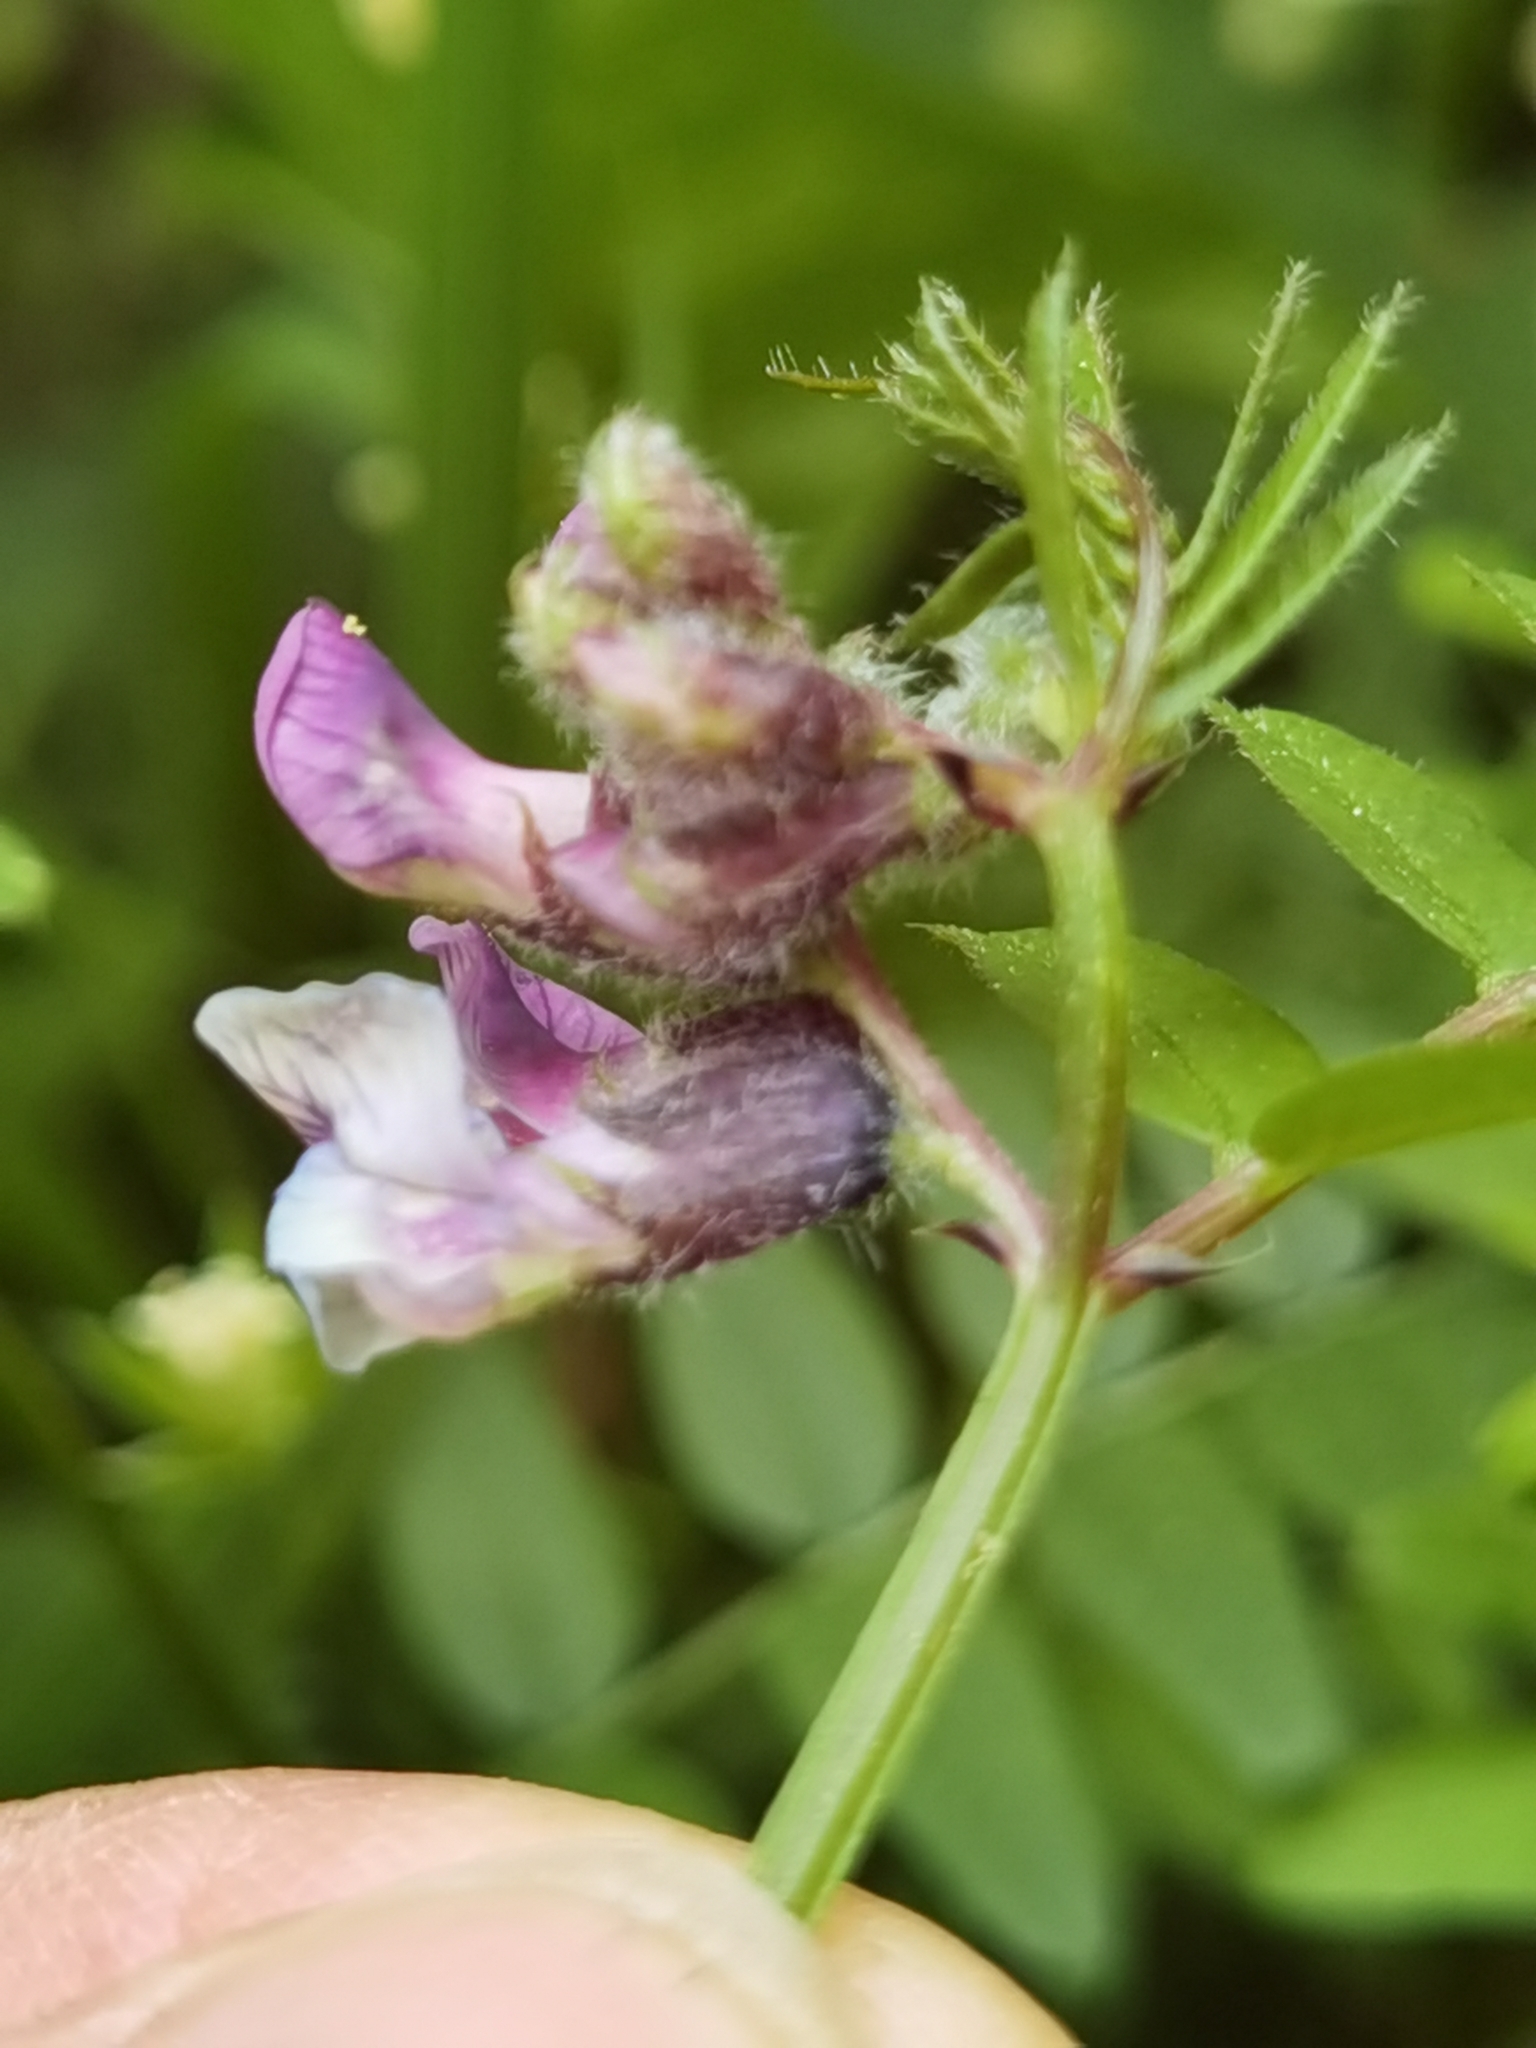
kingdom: Plantae
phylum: Tracheophyta
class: Magnoliopsida
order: Fabales
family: Fabaceae
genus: Vicia
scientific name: Vicia sepium
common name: Bush vetch
